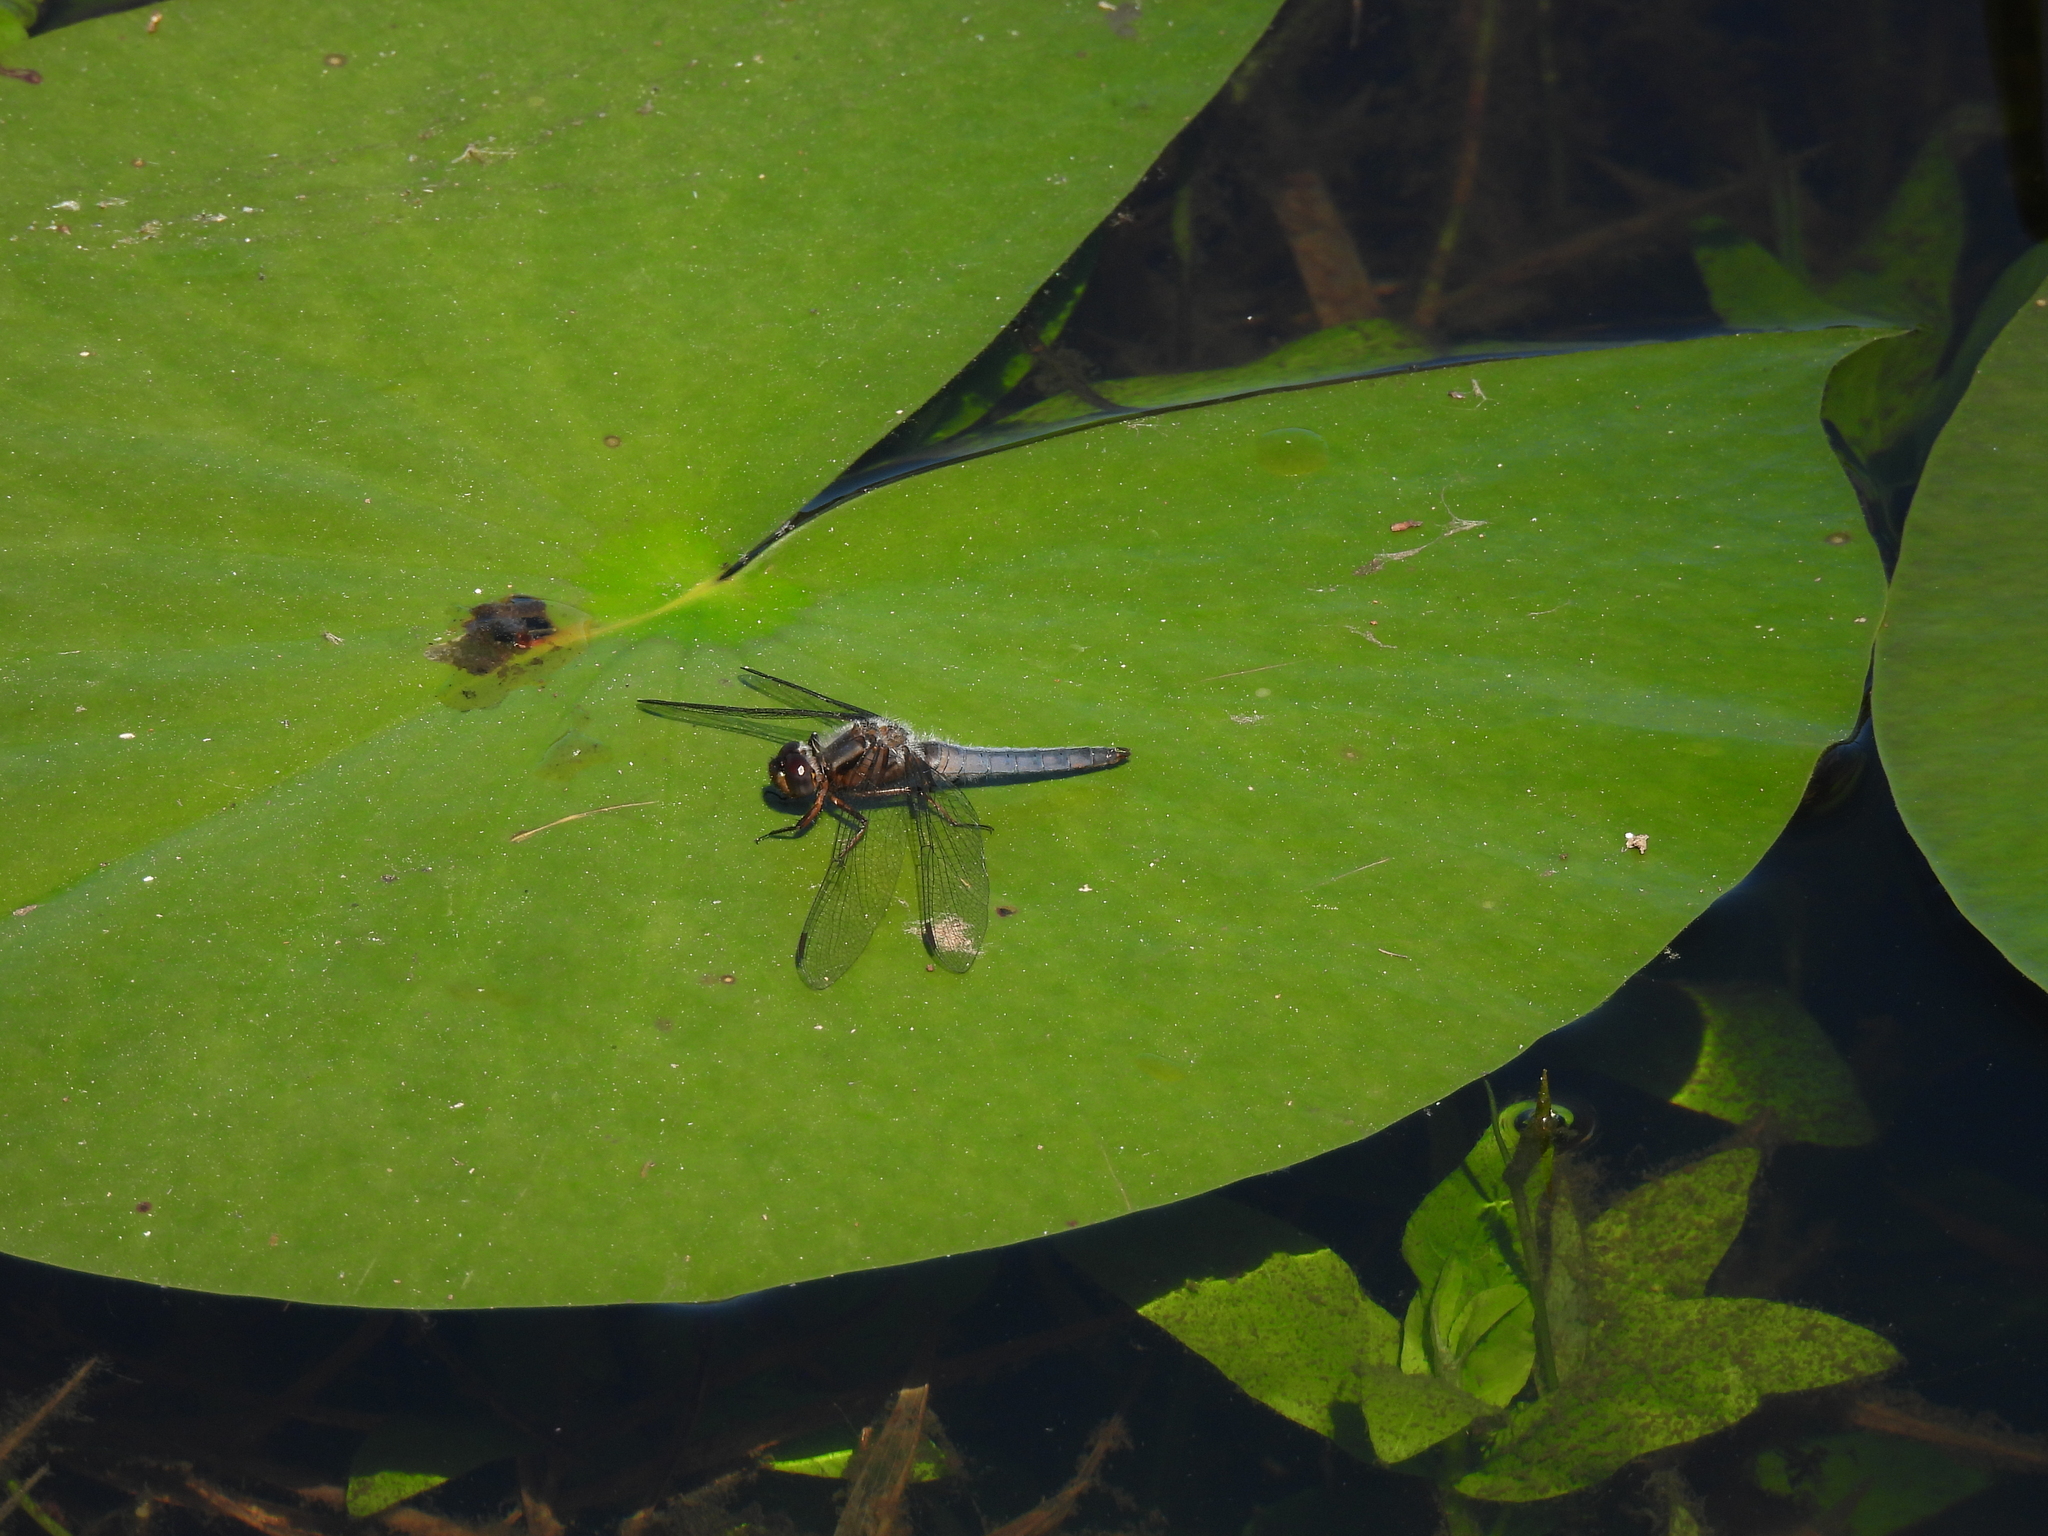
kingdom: Animalia
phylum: Arthropoda
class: Insecta
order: Odonata
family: Libellulidae
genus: Ladona
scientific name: Ladona deplanata
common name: Blue corporal
